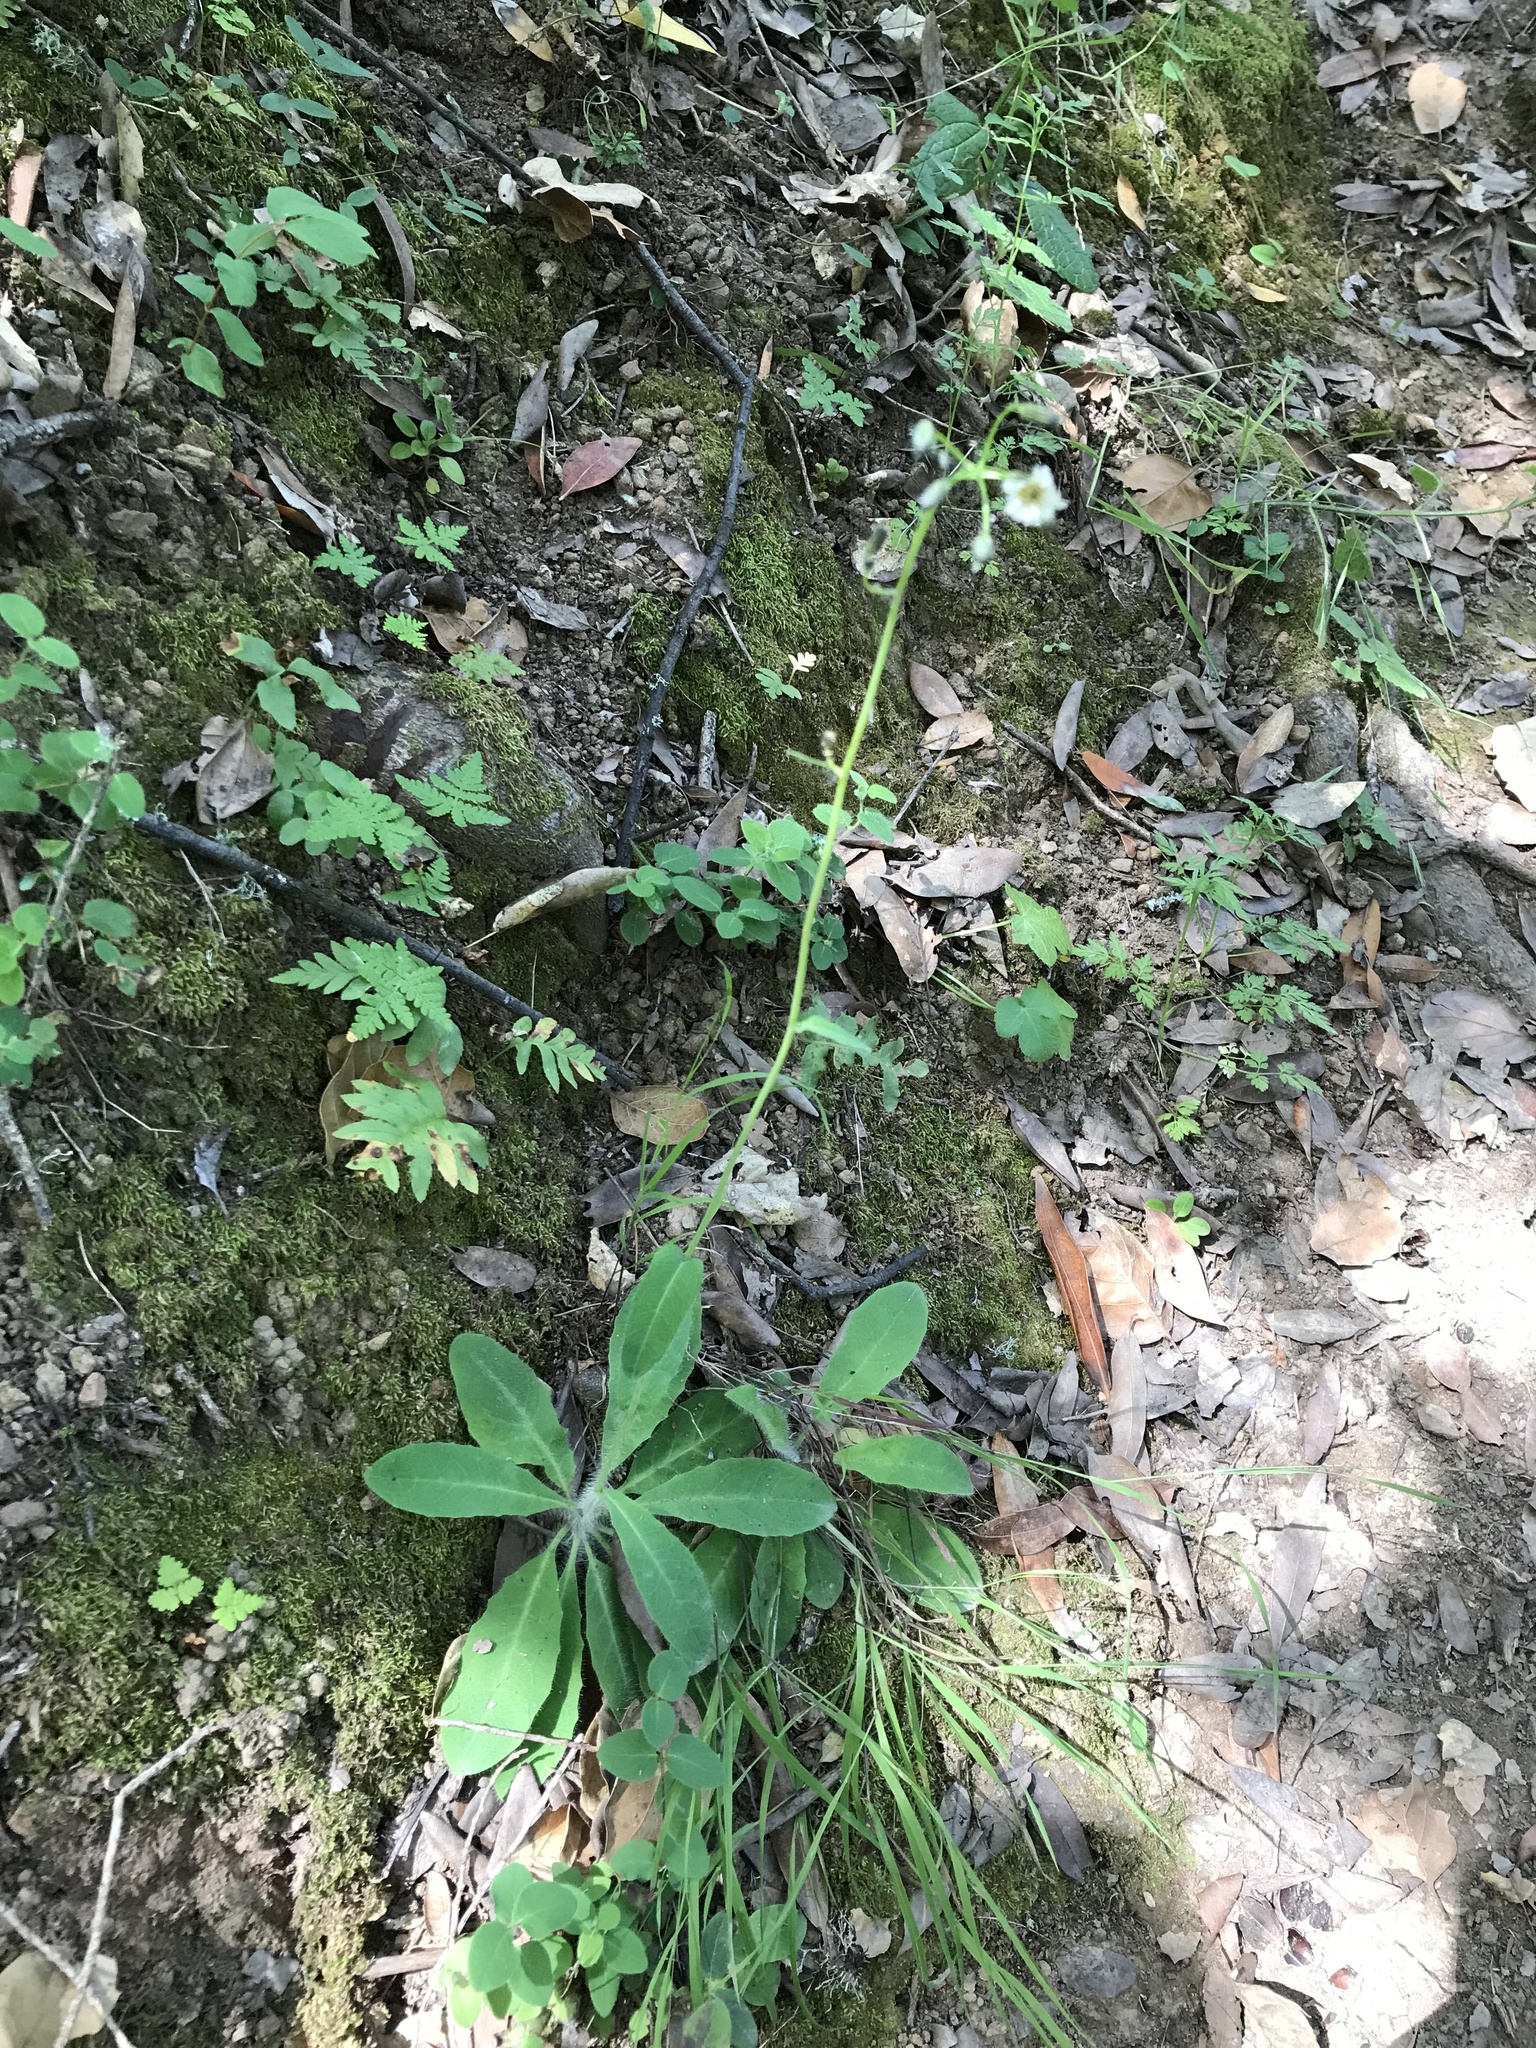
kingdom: Plantae
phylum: Tracheophyta
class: Magnoliopsida
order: Asterales
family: Asteraceae
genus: Hieracium
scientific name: Hieracium albiflorum
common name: White hawkweed
